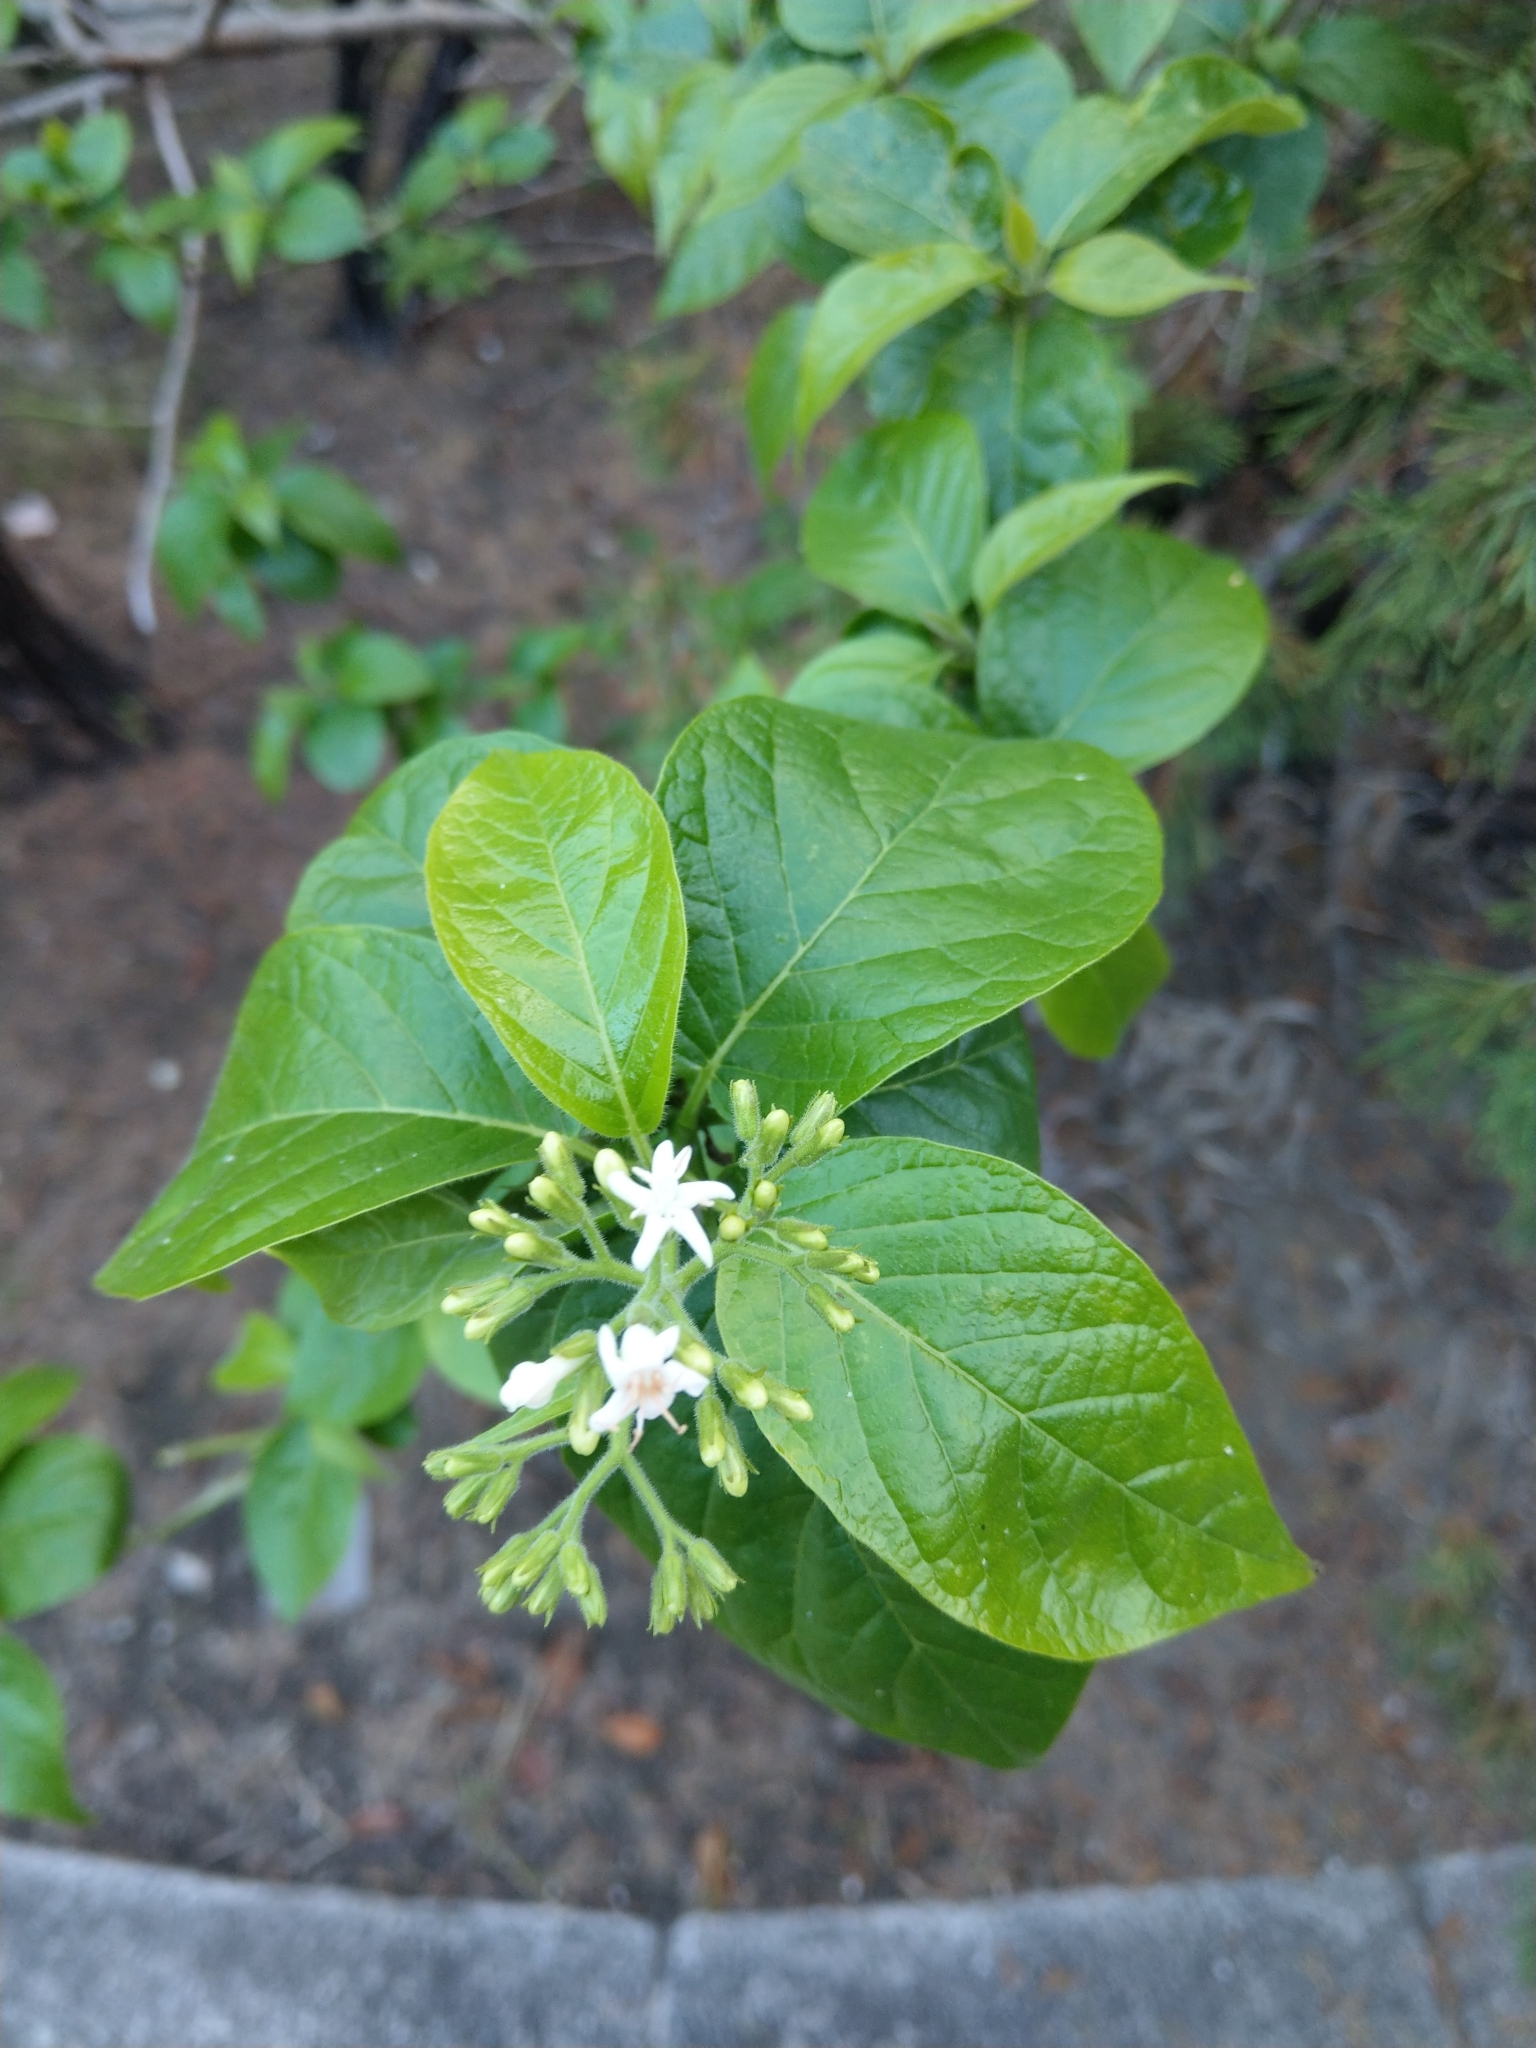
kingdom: Plantae
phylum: Tracheophyta
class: Magnoliopsida
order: Boraginales
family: Ehretiaceae
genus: Ehretia
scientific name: Ehretia resinosa
